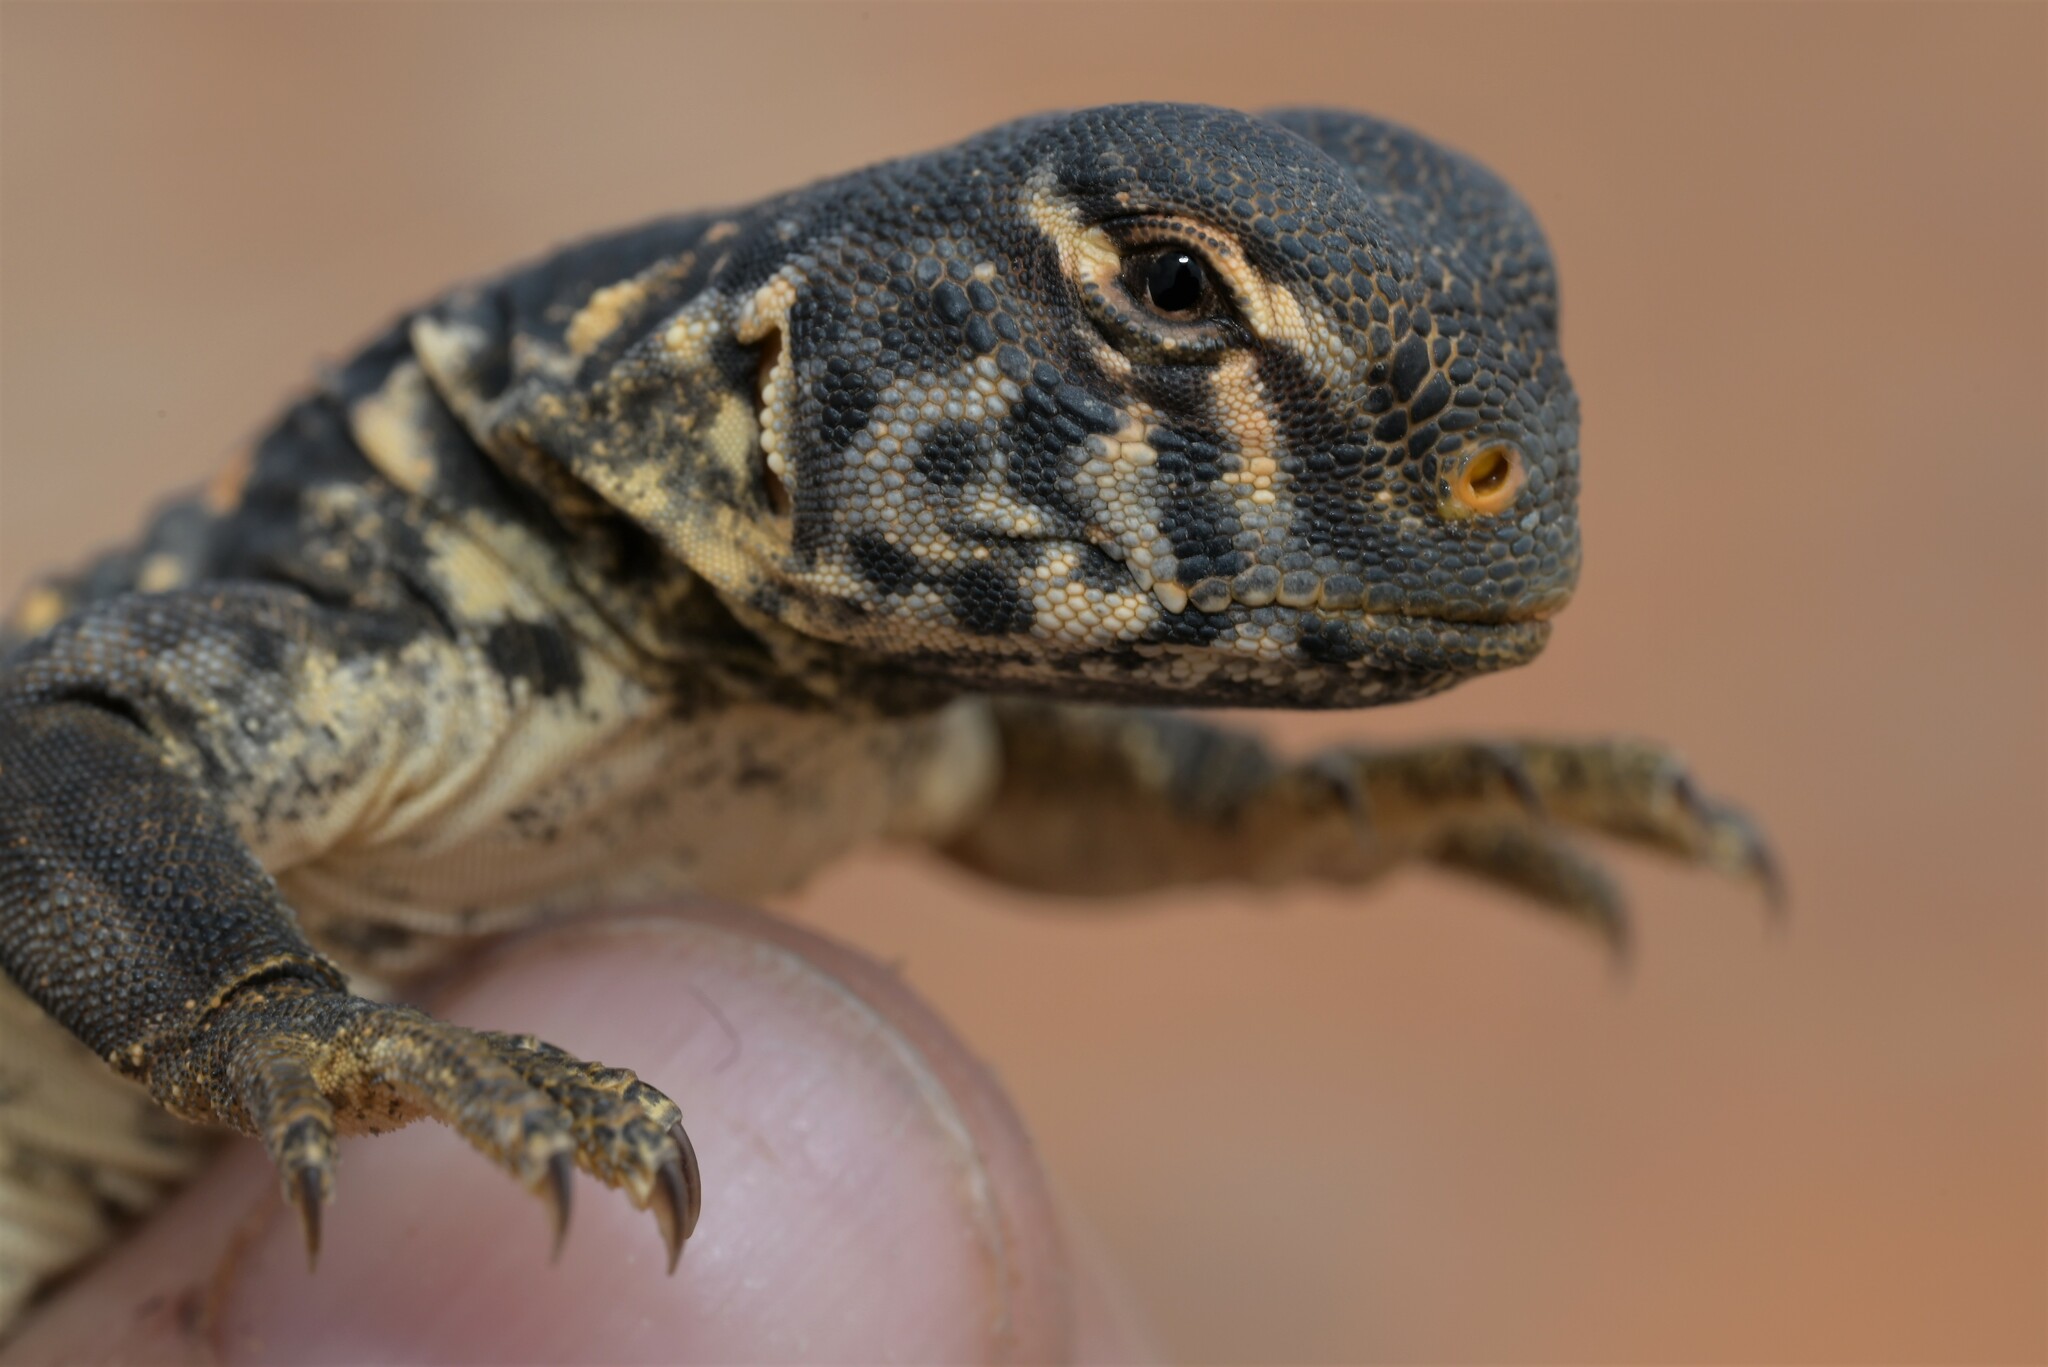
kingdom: Animalia
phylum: Chordata
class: Squamata
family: Agamidae
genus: Uromastyx
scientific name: Uromastyx aegyptia
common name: Egyptian mastigure
